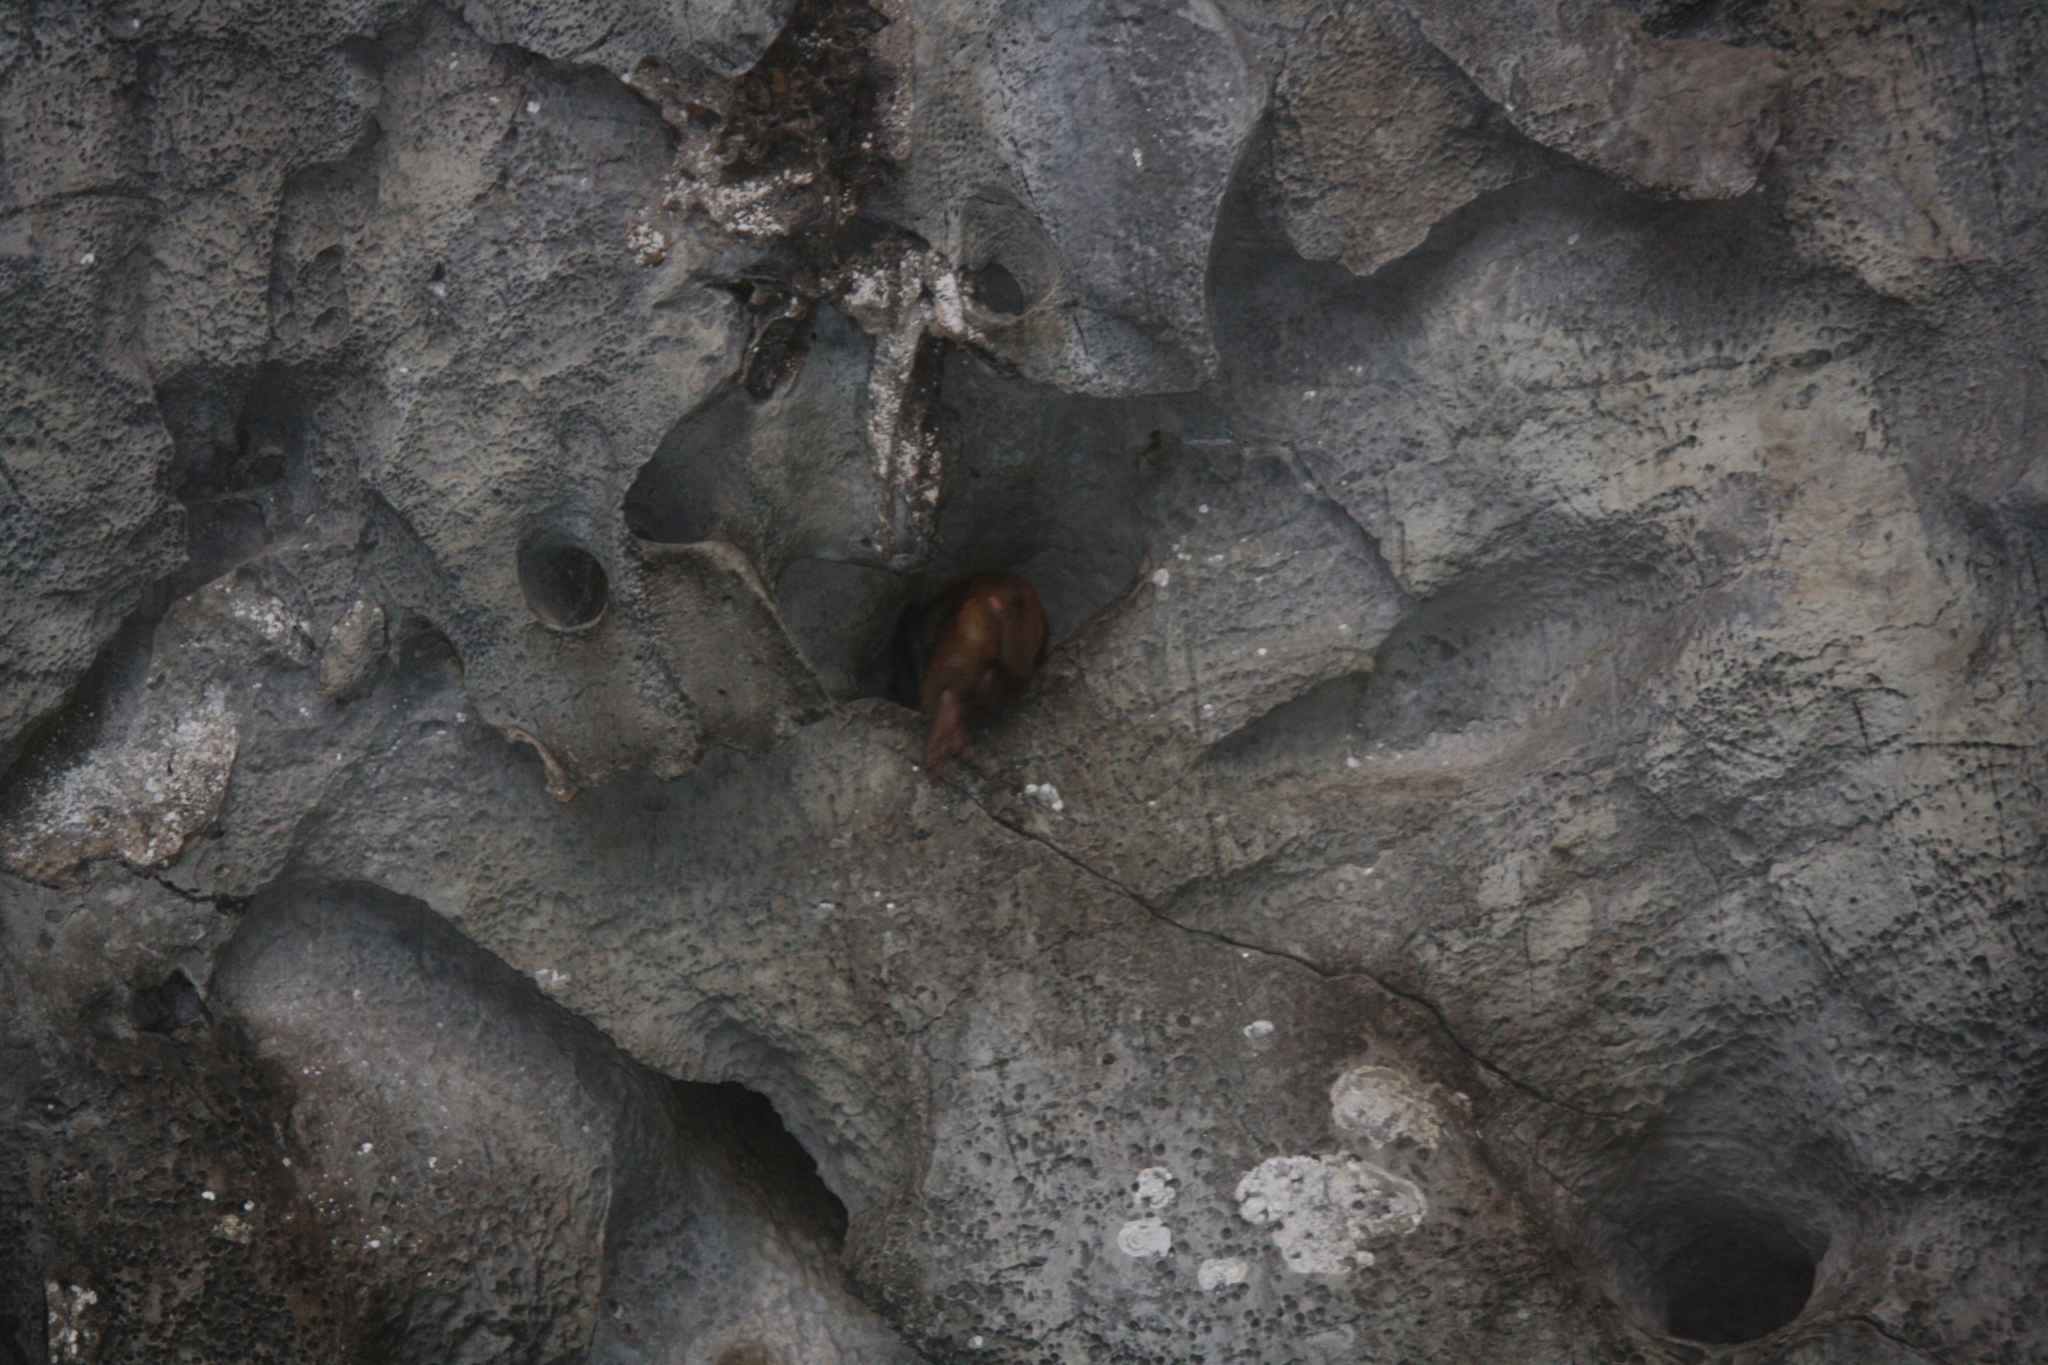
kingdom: Animalia
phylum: Chordata
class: Mammalia
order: Primates
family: Cercopithecidae
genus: Macaca
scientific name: Macaca mulatta
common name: Rhesus monkey
